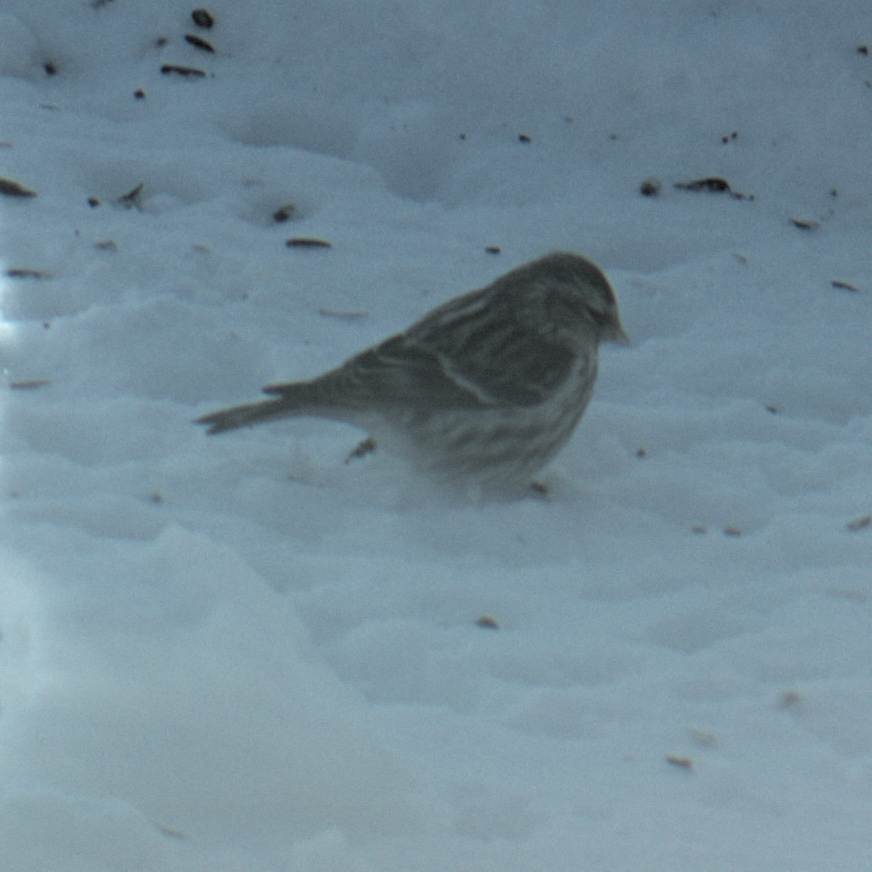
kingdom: Animalia
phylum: Chordata
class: Aves
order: Passeriformes
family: Fringillidae
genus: Acanthis
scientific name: Acanthis flammea
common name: Common redpoll
